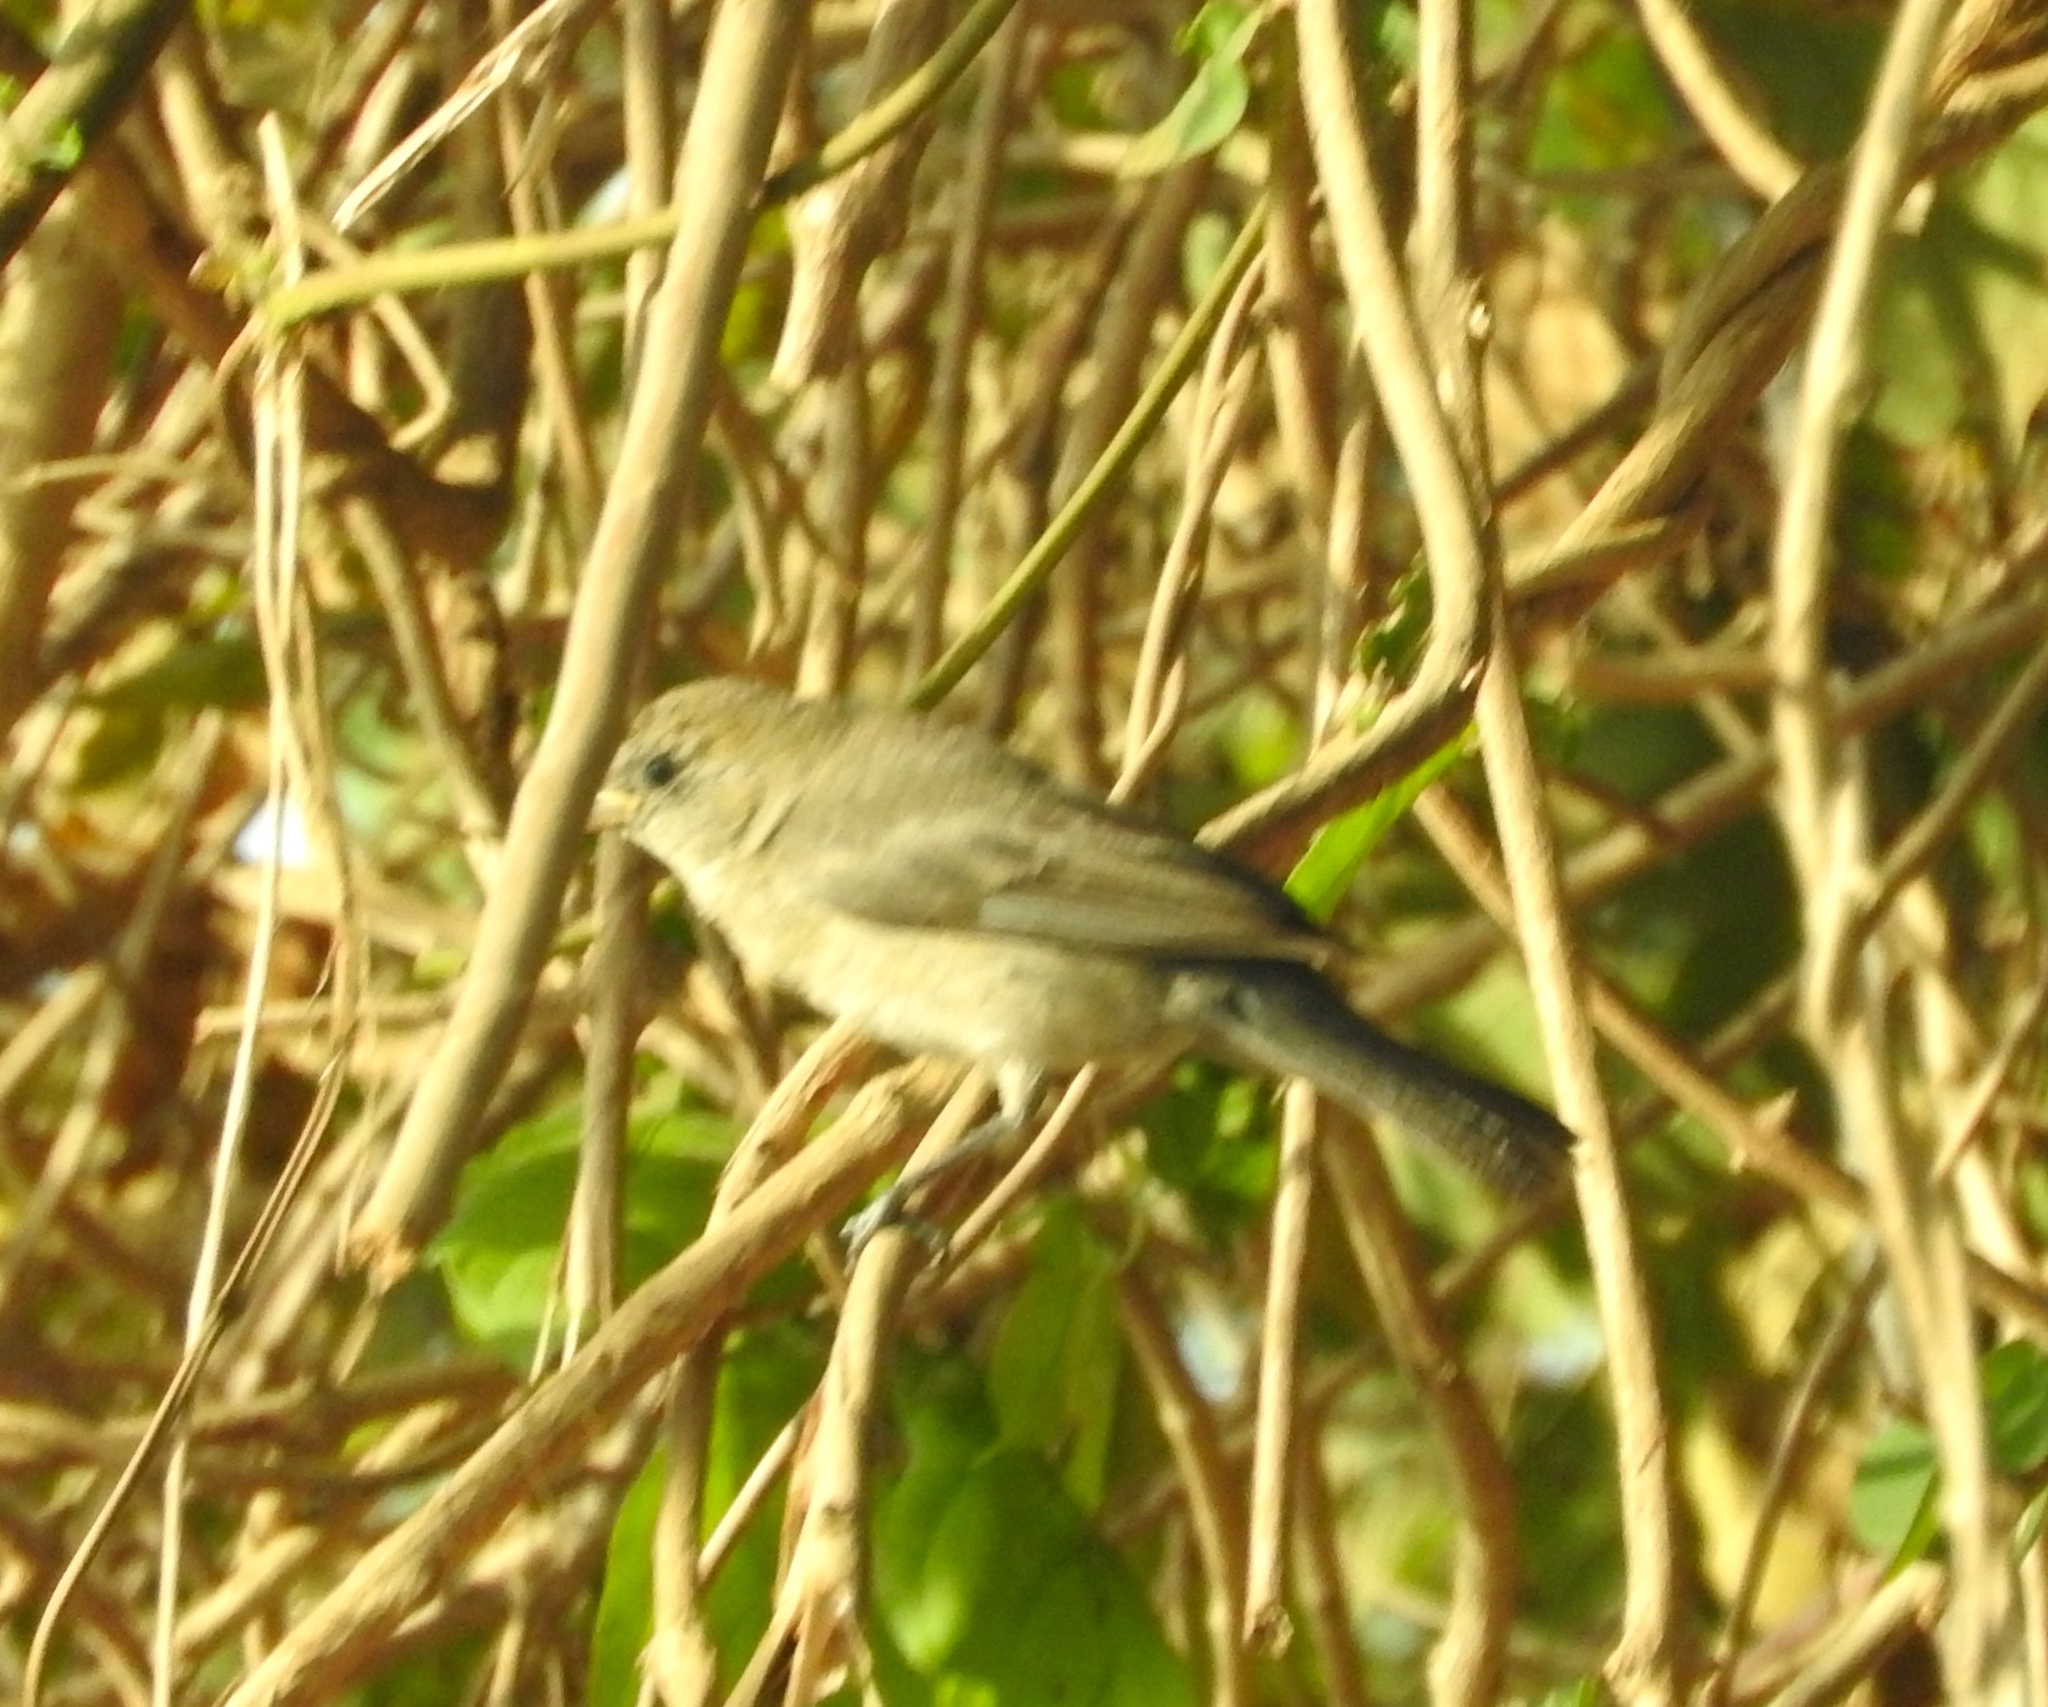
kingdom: Animalia
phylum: Chordata
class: Aves
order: Passeriformes
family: Cardinalidae
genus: Passerina
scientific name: Passerina
